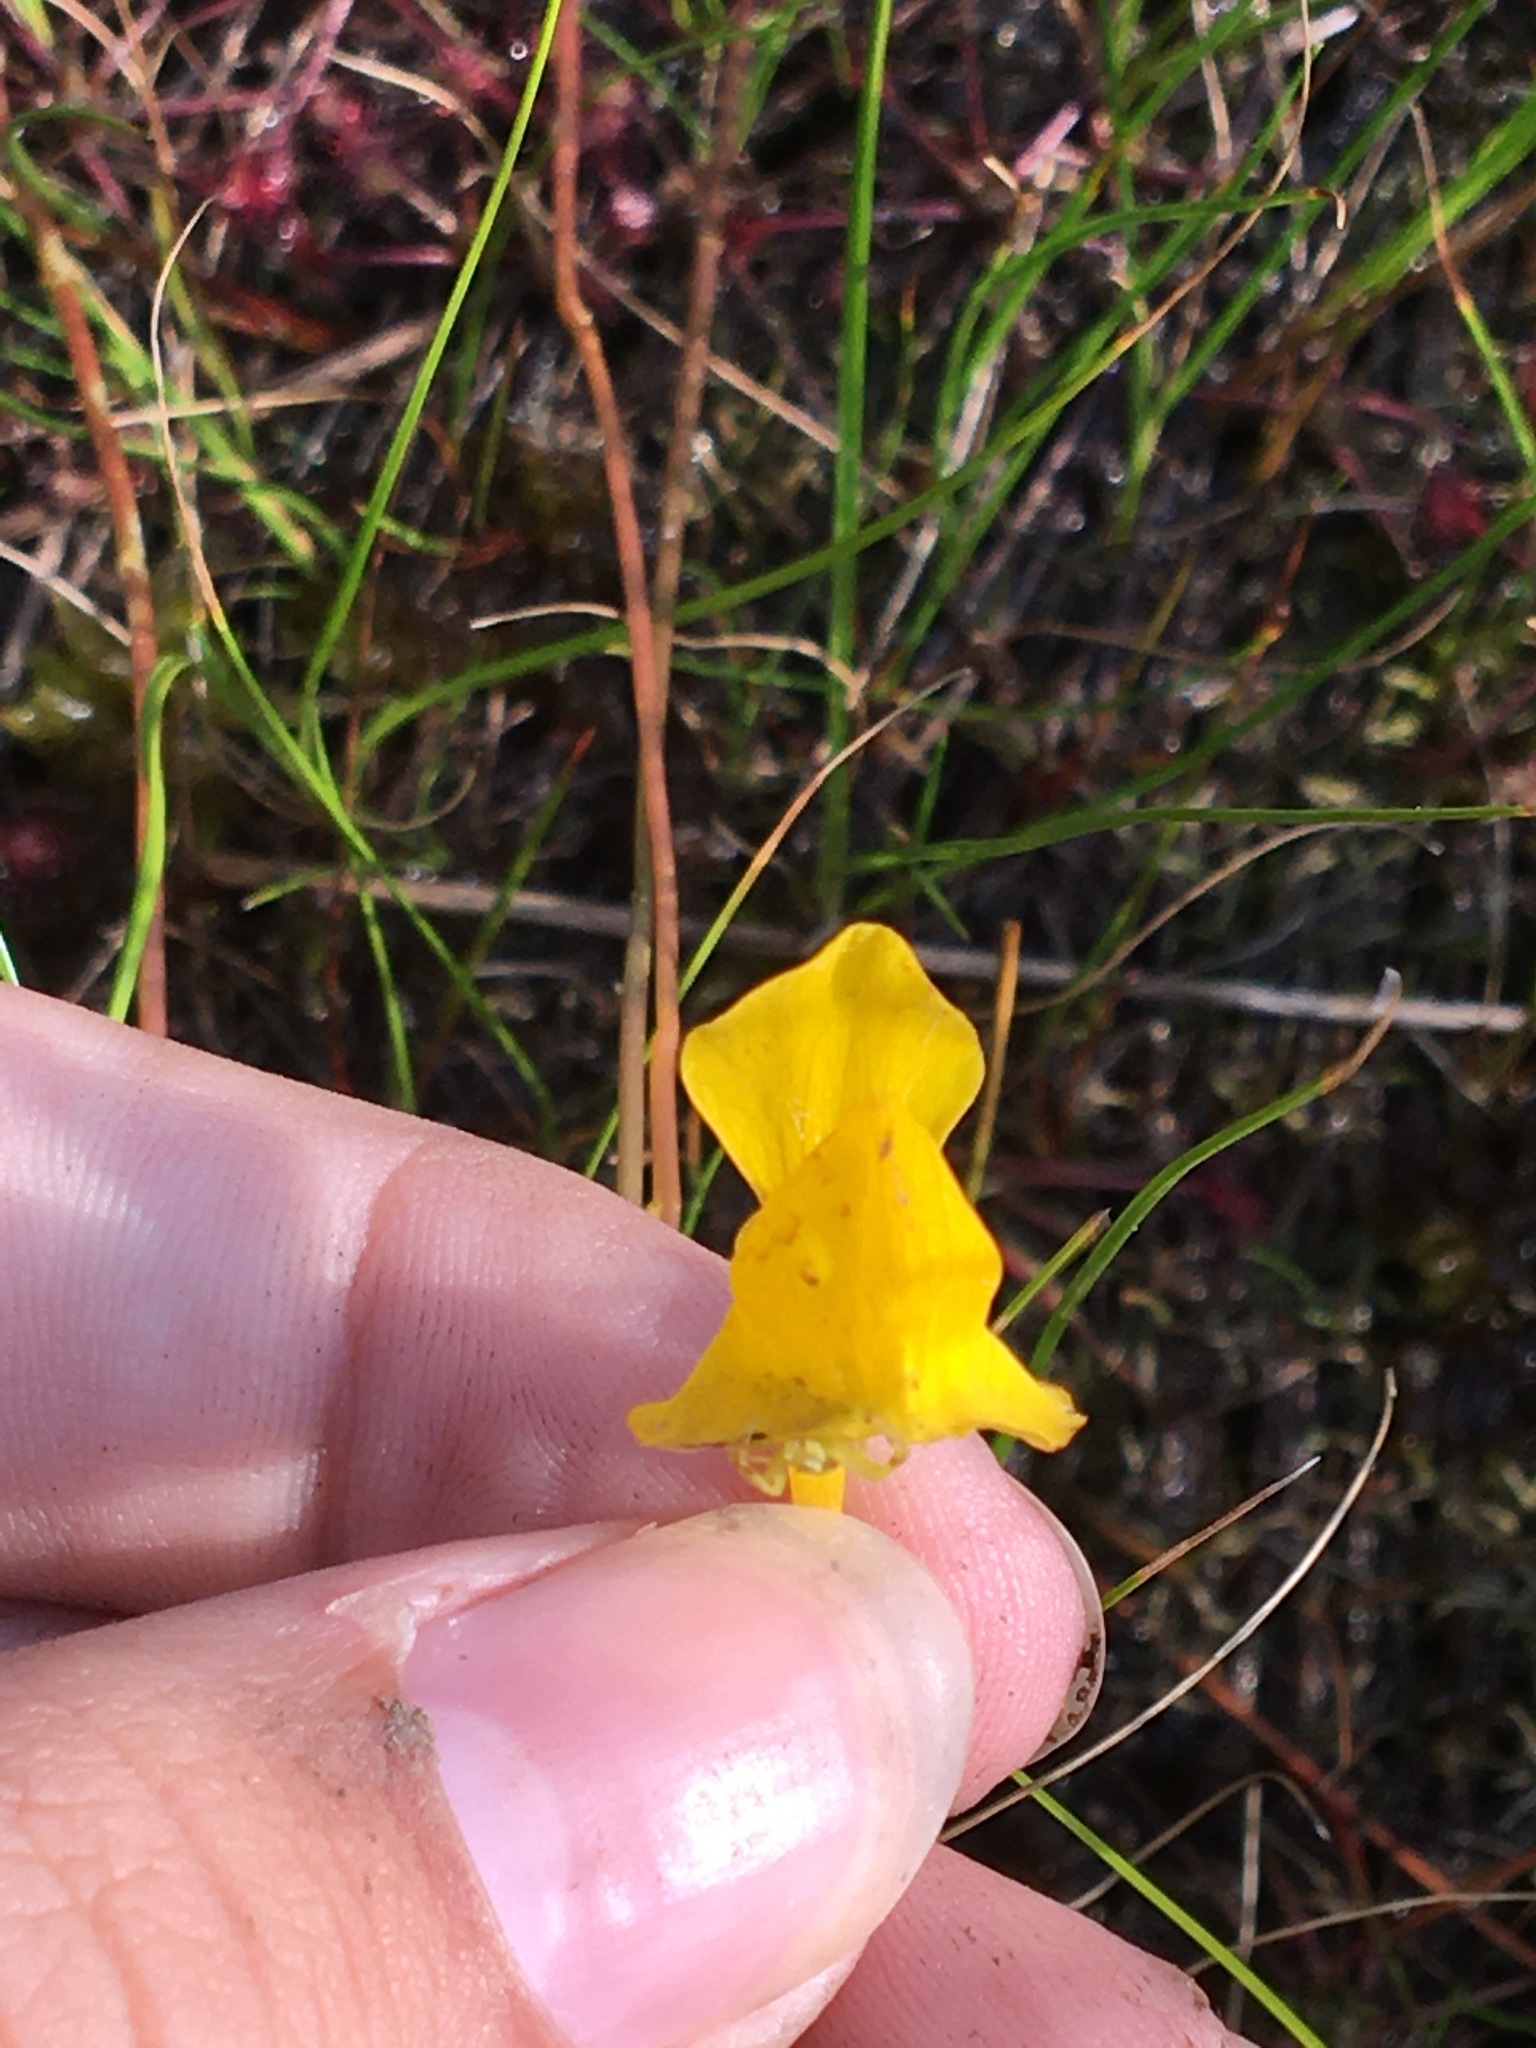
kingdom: Plantae
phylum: Tracheophyta
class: Magnoliopsida
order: Lamiales
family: Lentibulariaceae
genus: Utricularia
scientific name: Utricularia cornuta
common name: Horned bladderwort
